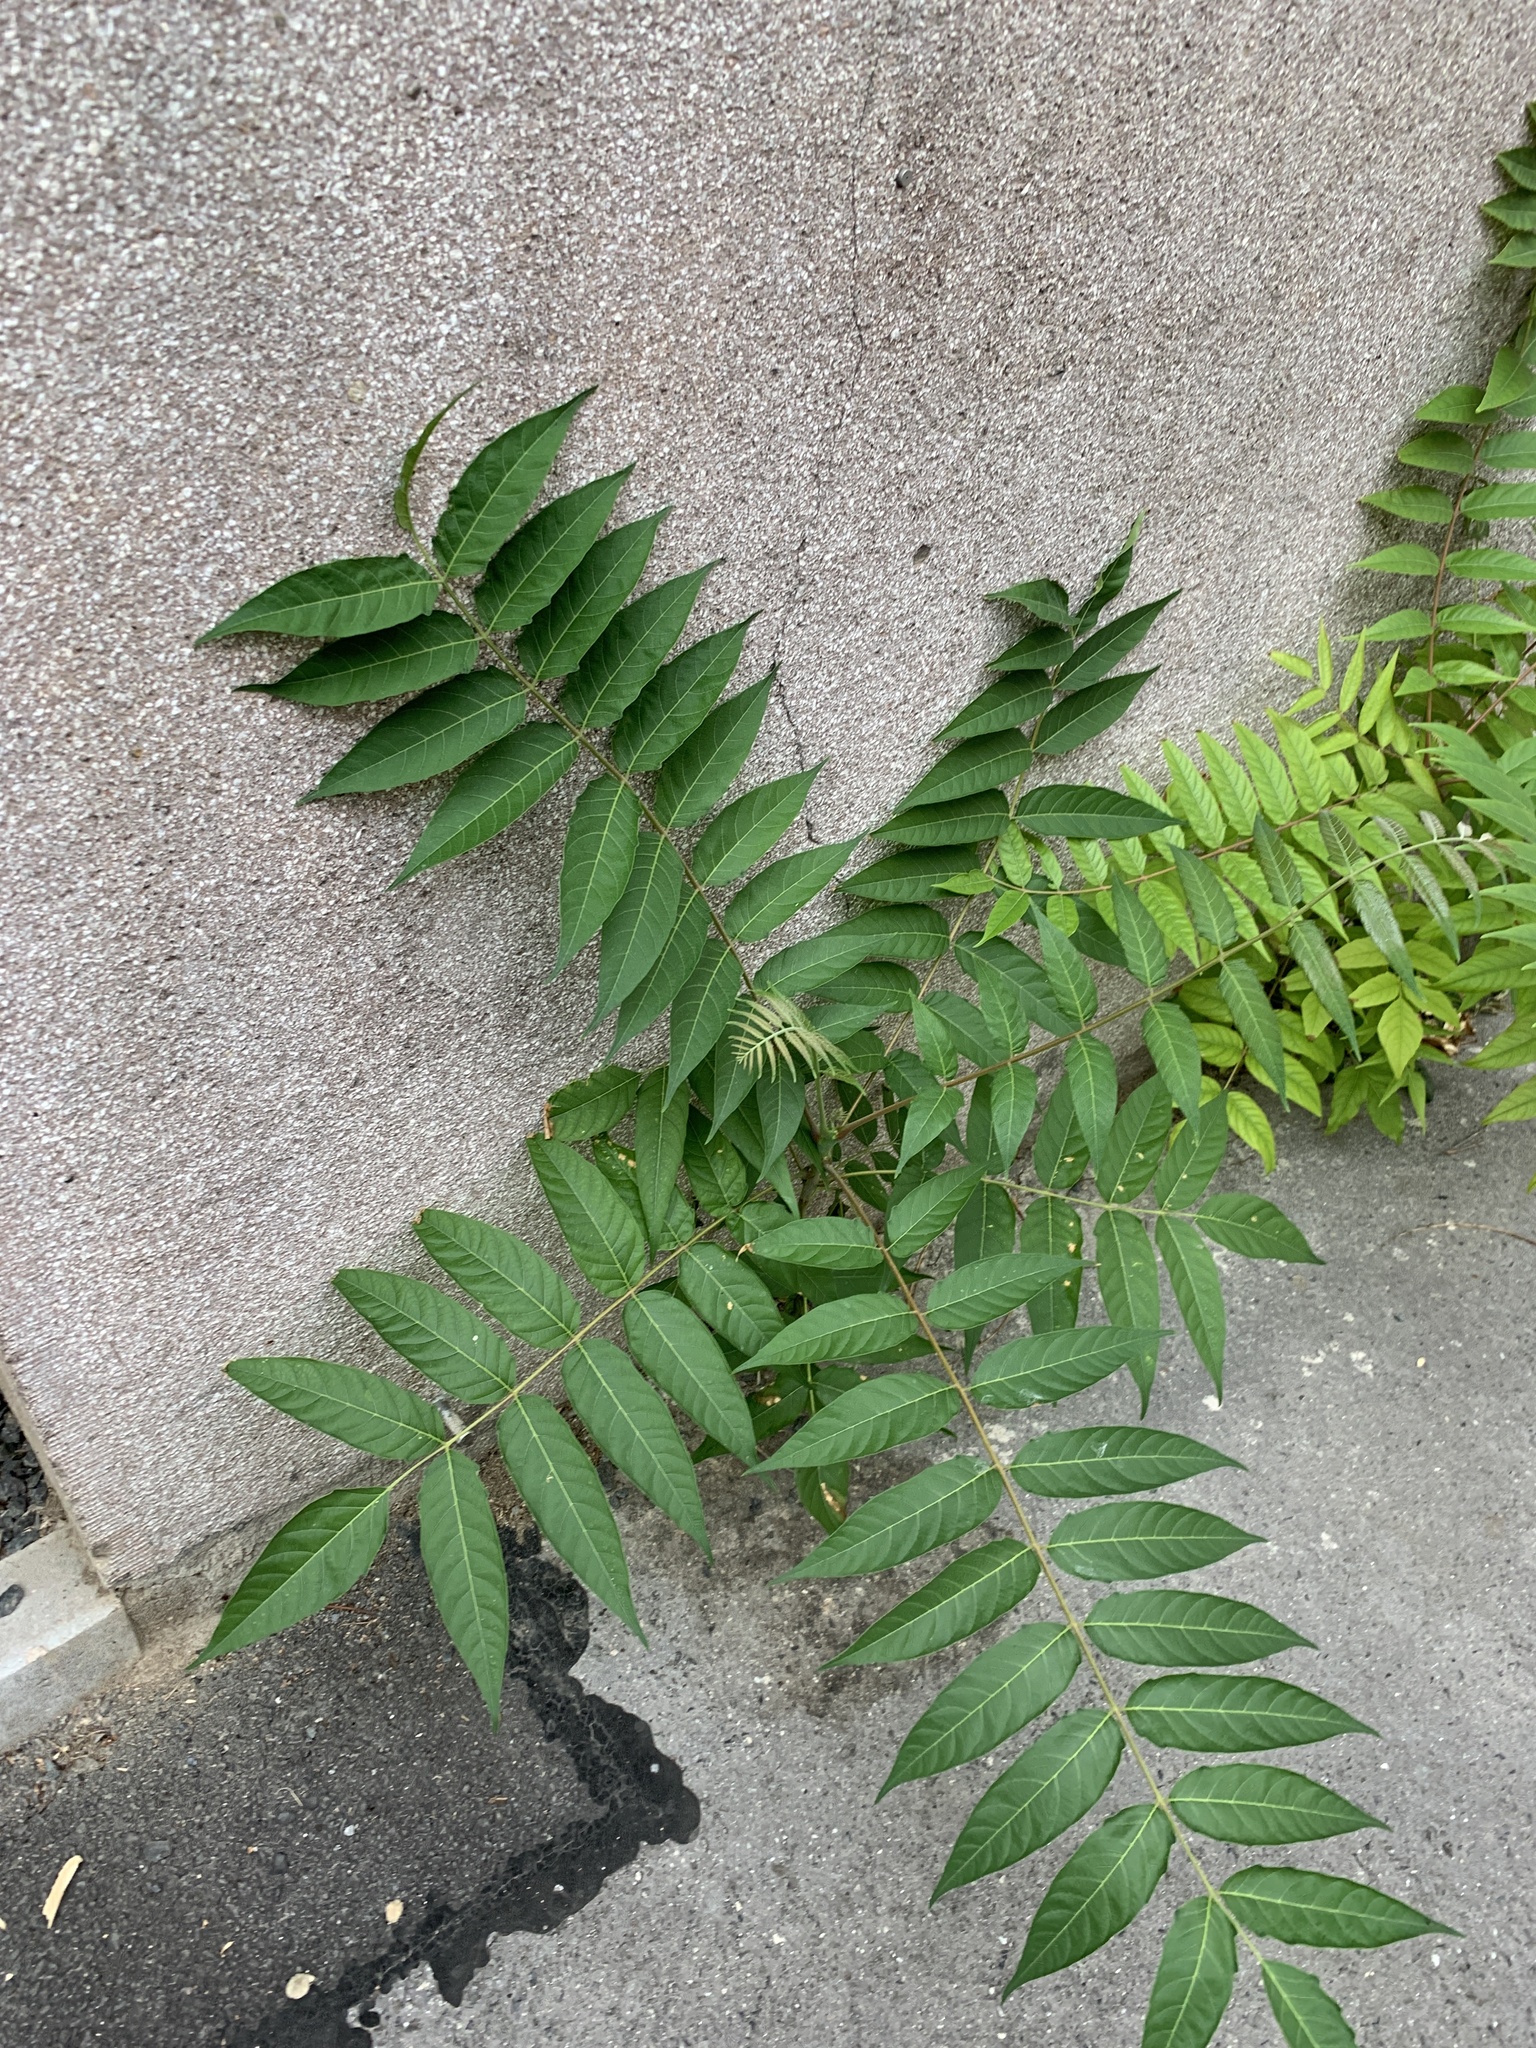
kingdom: Plantae
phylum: Tracheophyta
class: Magnoliopsida
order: Sapindales
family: Simaroubaceae
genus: Ailanthus
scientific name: Ailanthus altissima
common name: Tree-of-heaven
